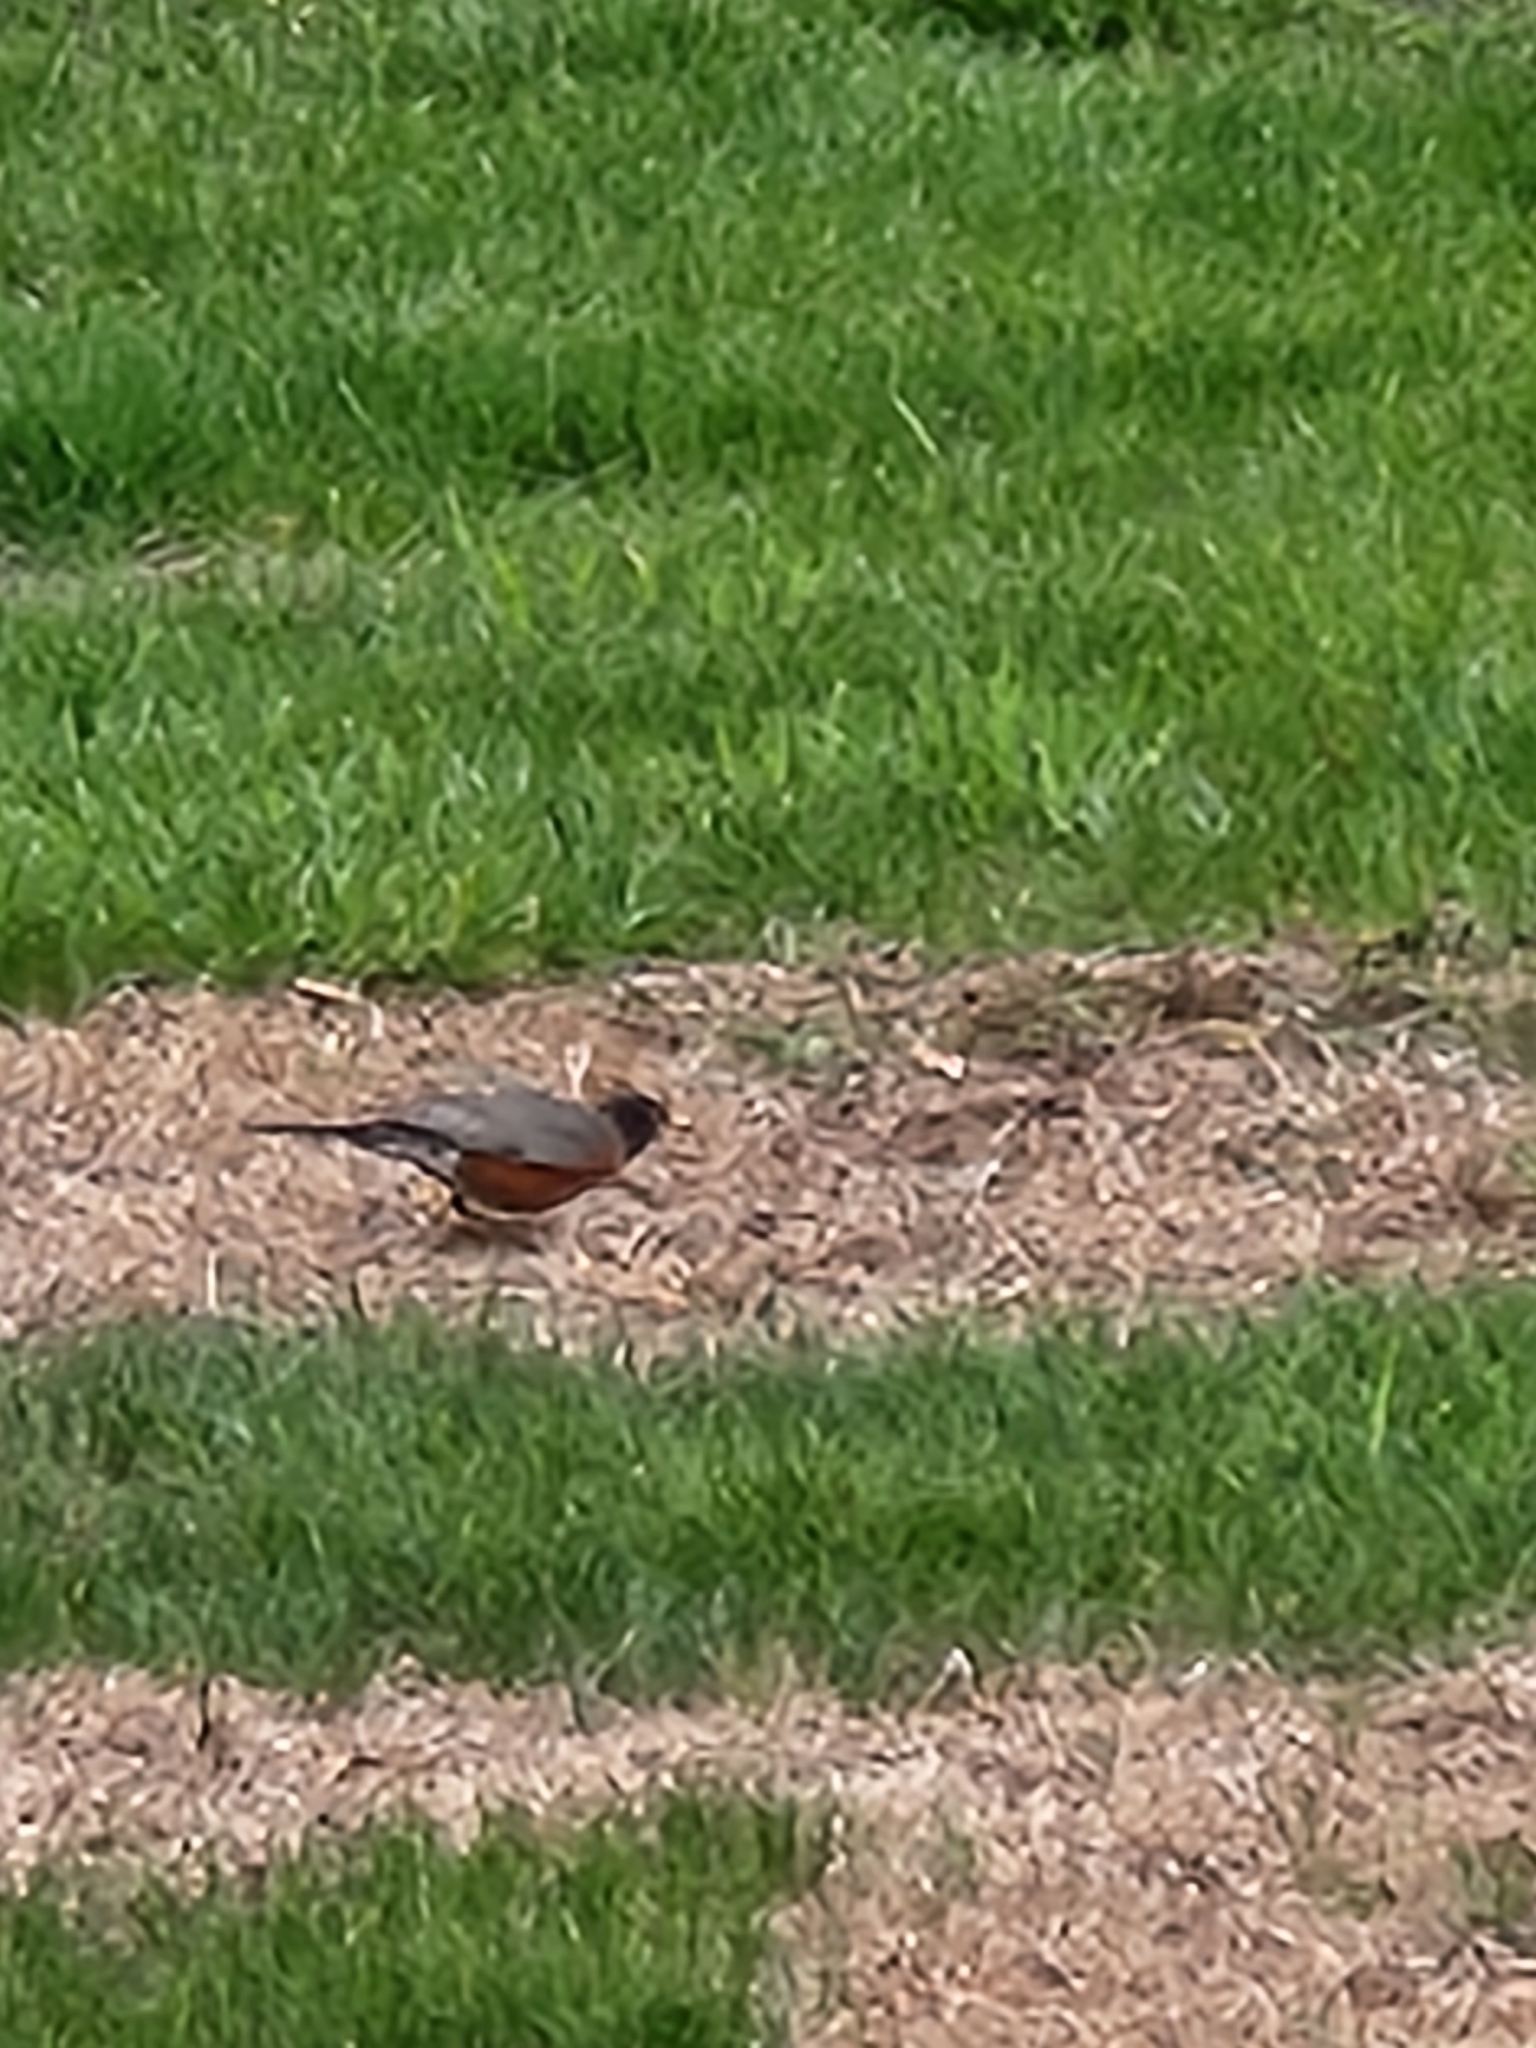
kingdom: Animalia
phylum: Chordata
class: Aves
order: Passeriformes
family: Turdidae
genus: Turdus
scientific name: Turdus migratorius
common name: American robin
